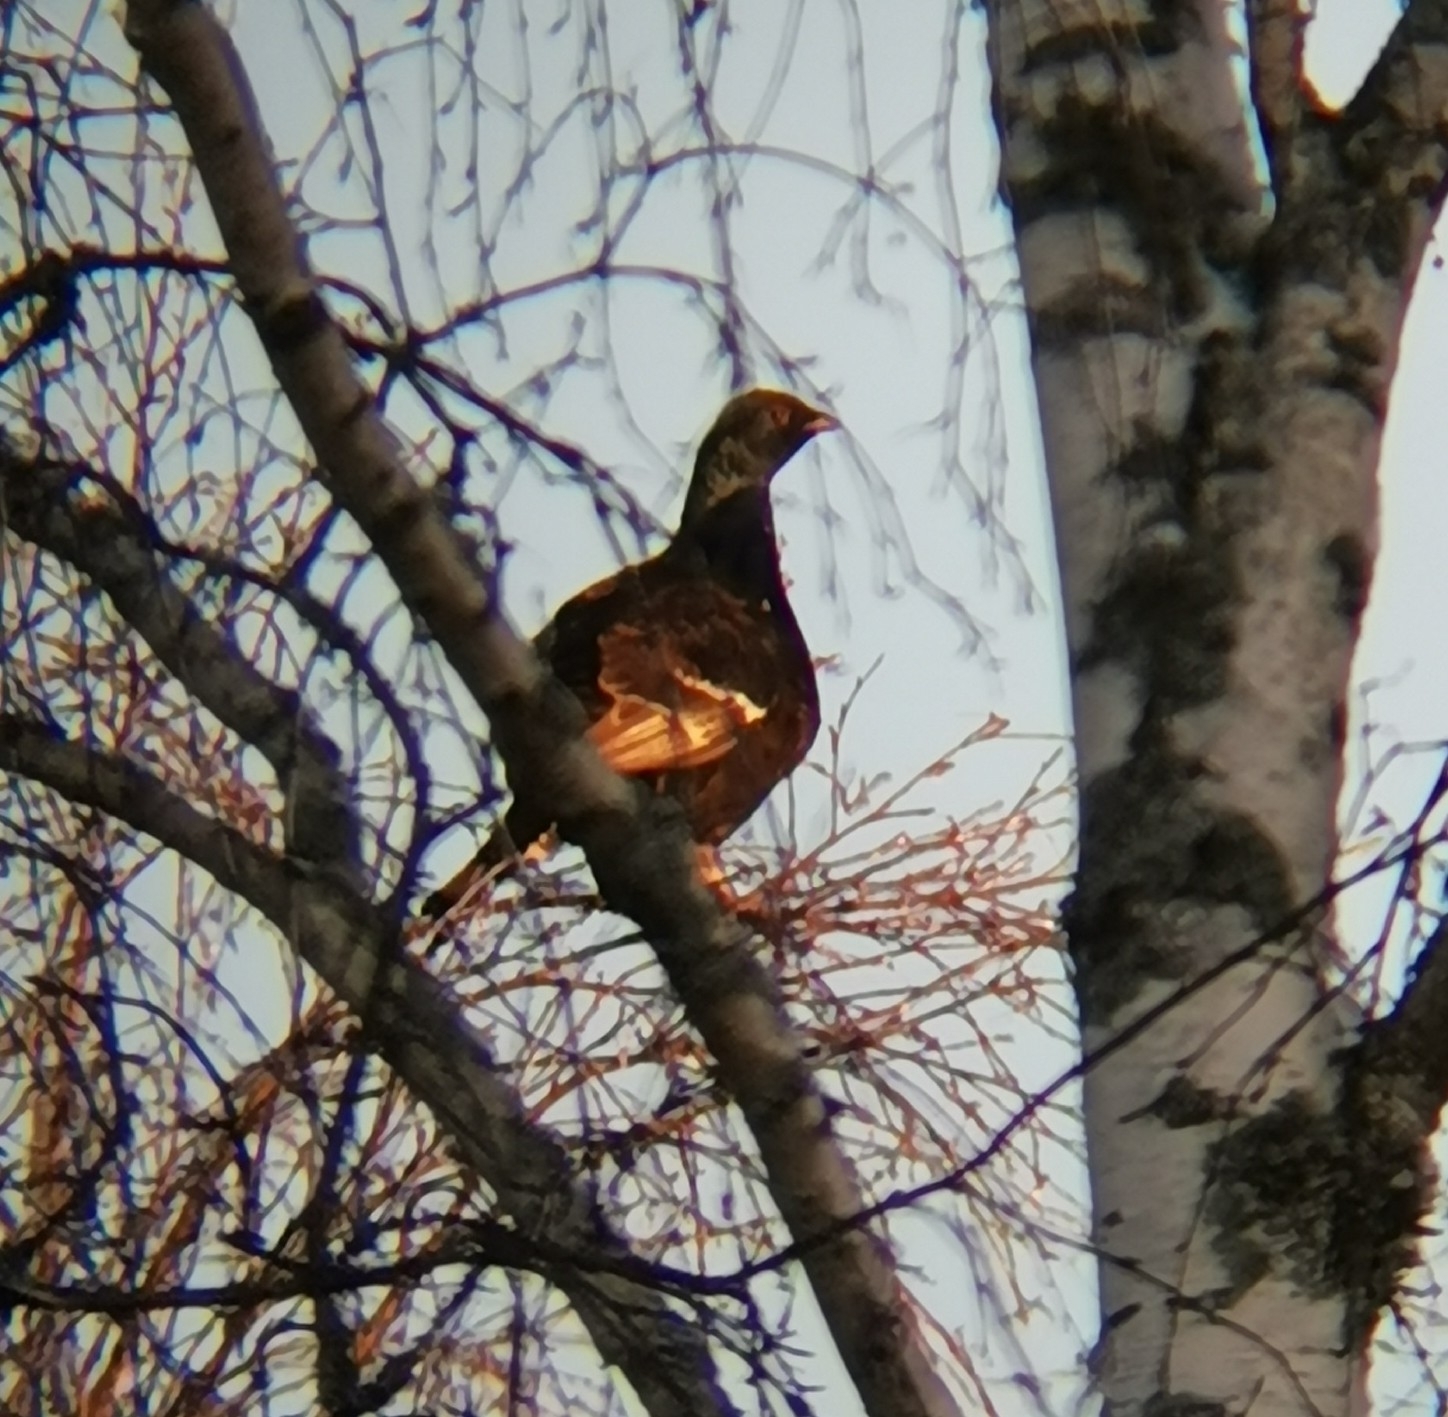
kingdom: Animalia
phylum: Chordata
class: Aves
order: Galliformes
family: Phasianidae
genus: Lyrurus
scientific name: Lyrurus tetrix
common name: Black grouse
